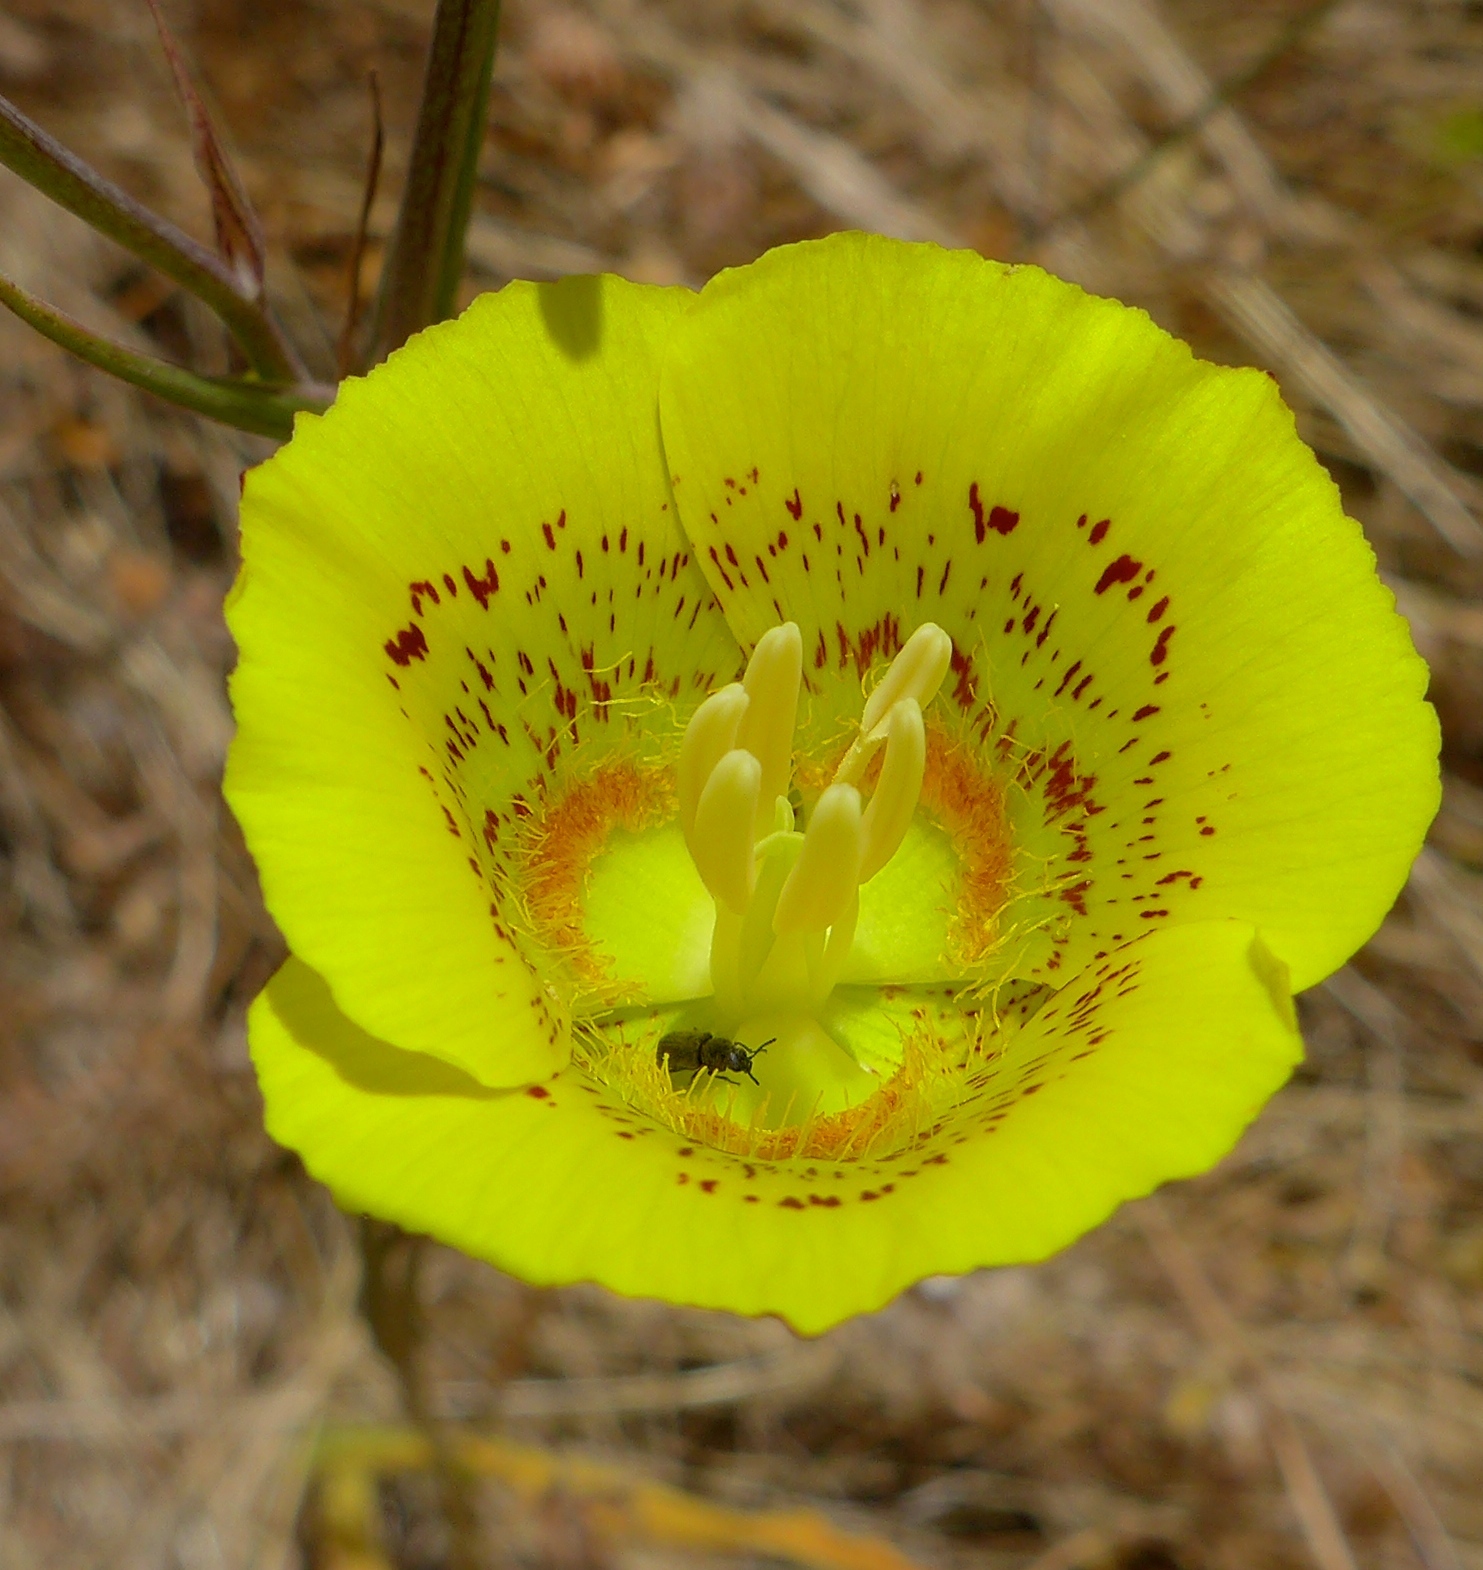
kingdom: Plantae
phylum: Tracheophyta
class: Liliopsida
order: Liliales
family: Liliaceae
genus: Calochortus
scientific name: Calochortus luteus
